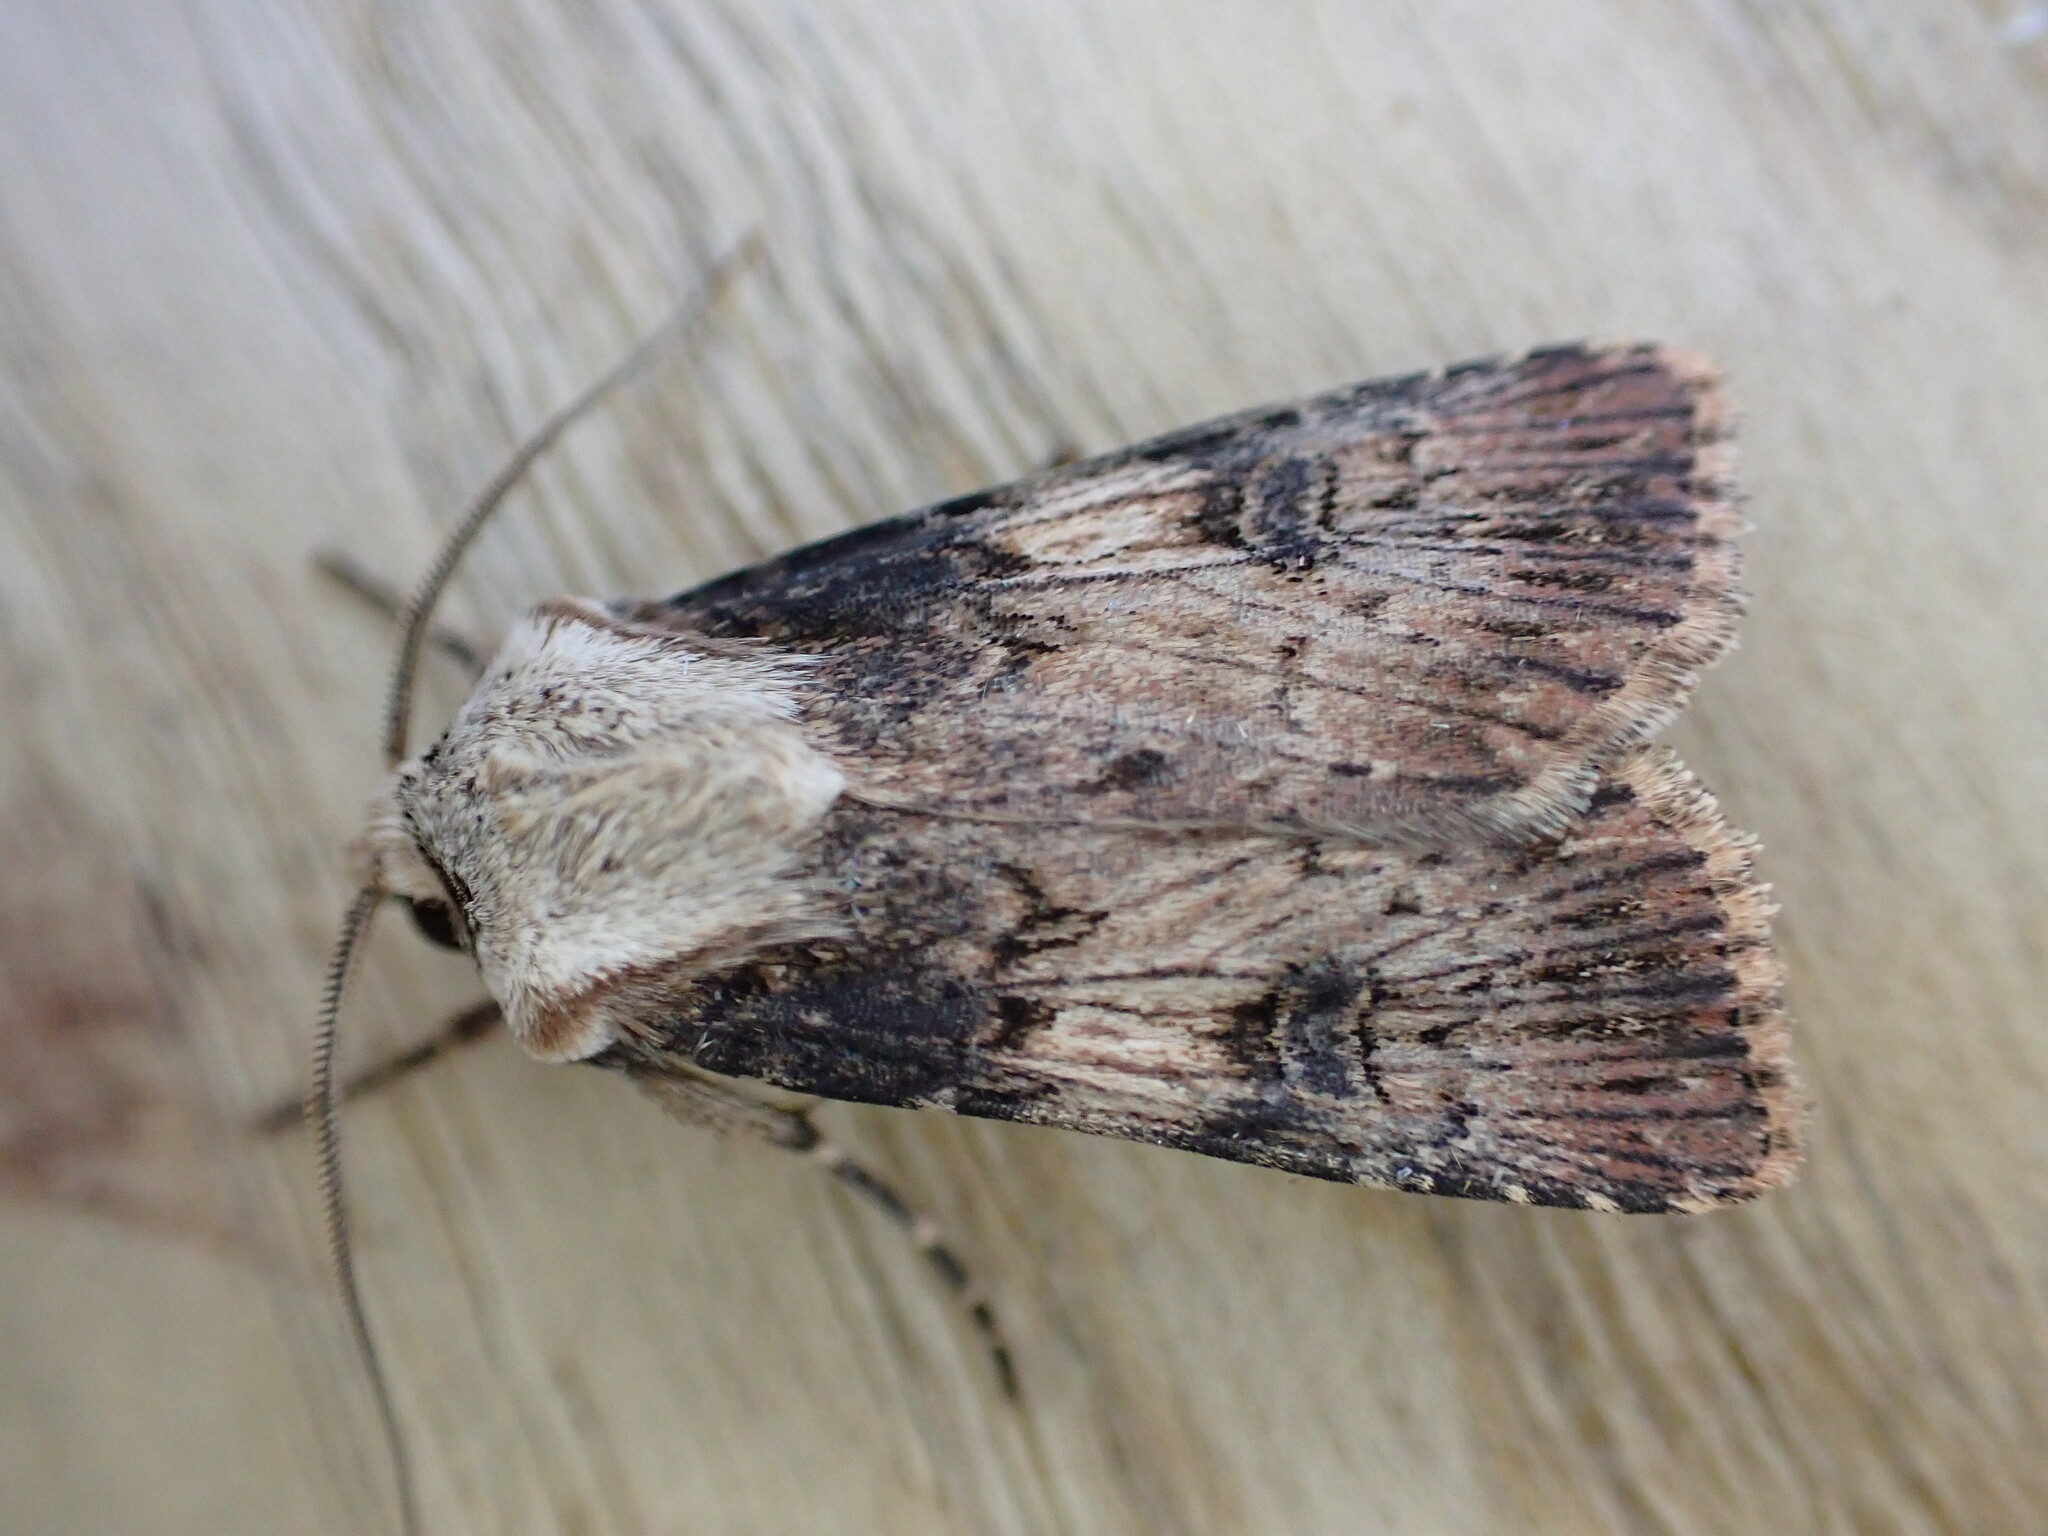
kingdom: Animalia
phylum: Arthropoda
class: Insecta
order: Lepidoptera
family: Noctuidae
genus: Agrotis
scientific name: Agrotis puta
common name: Shuttle-shaped dart
